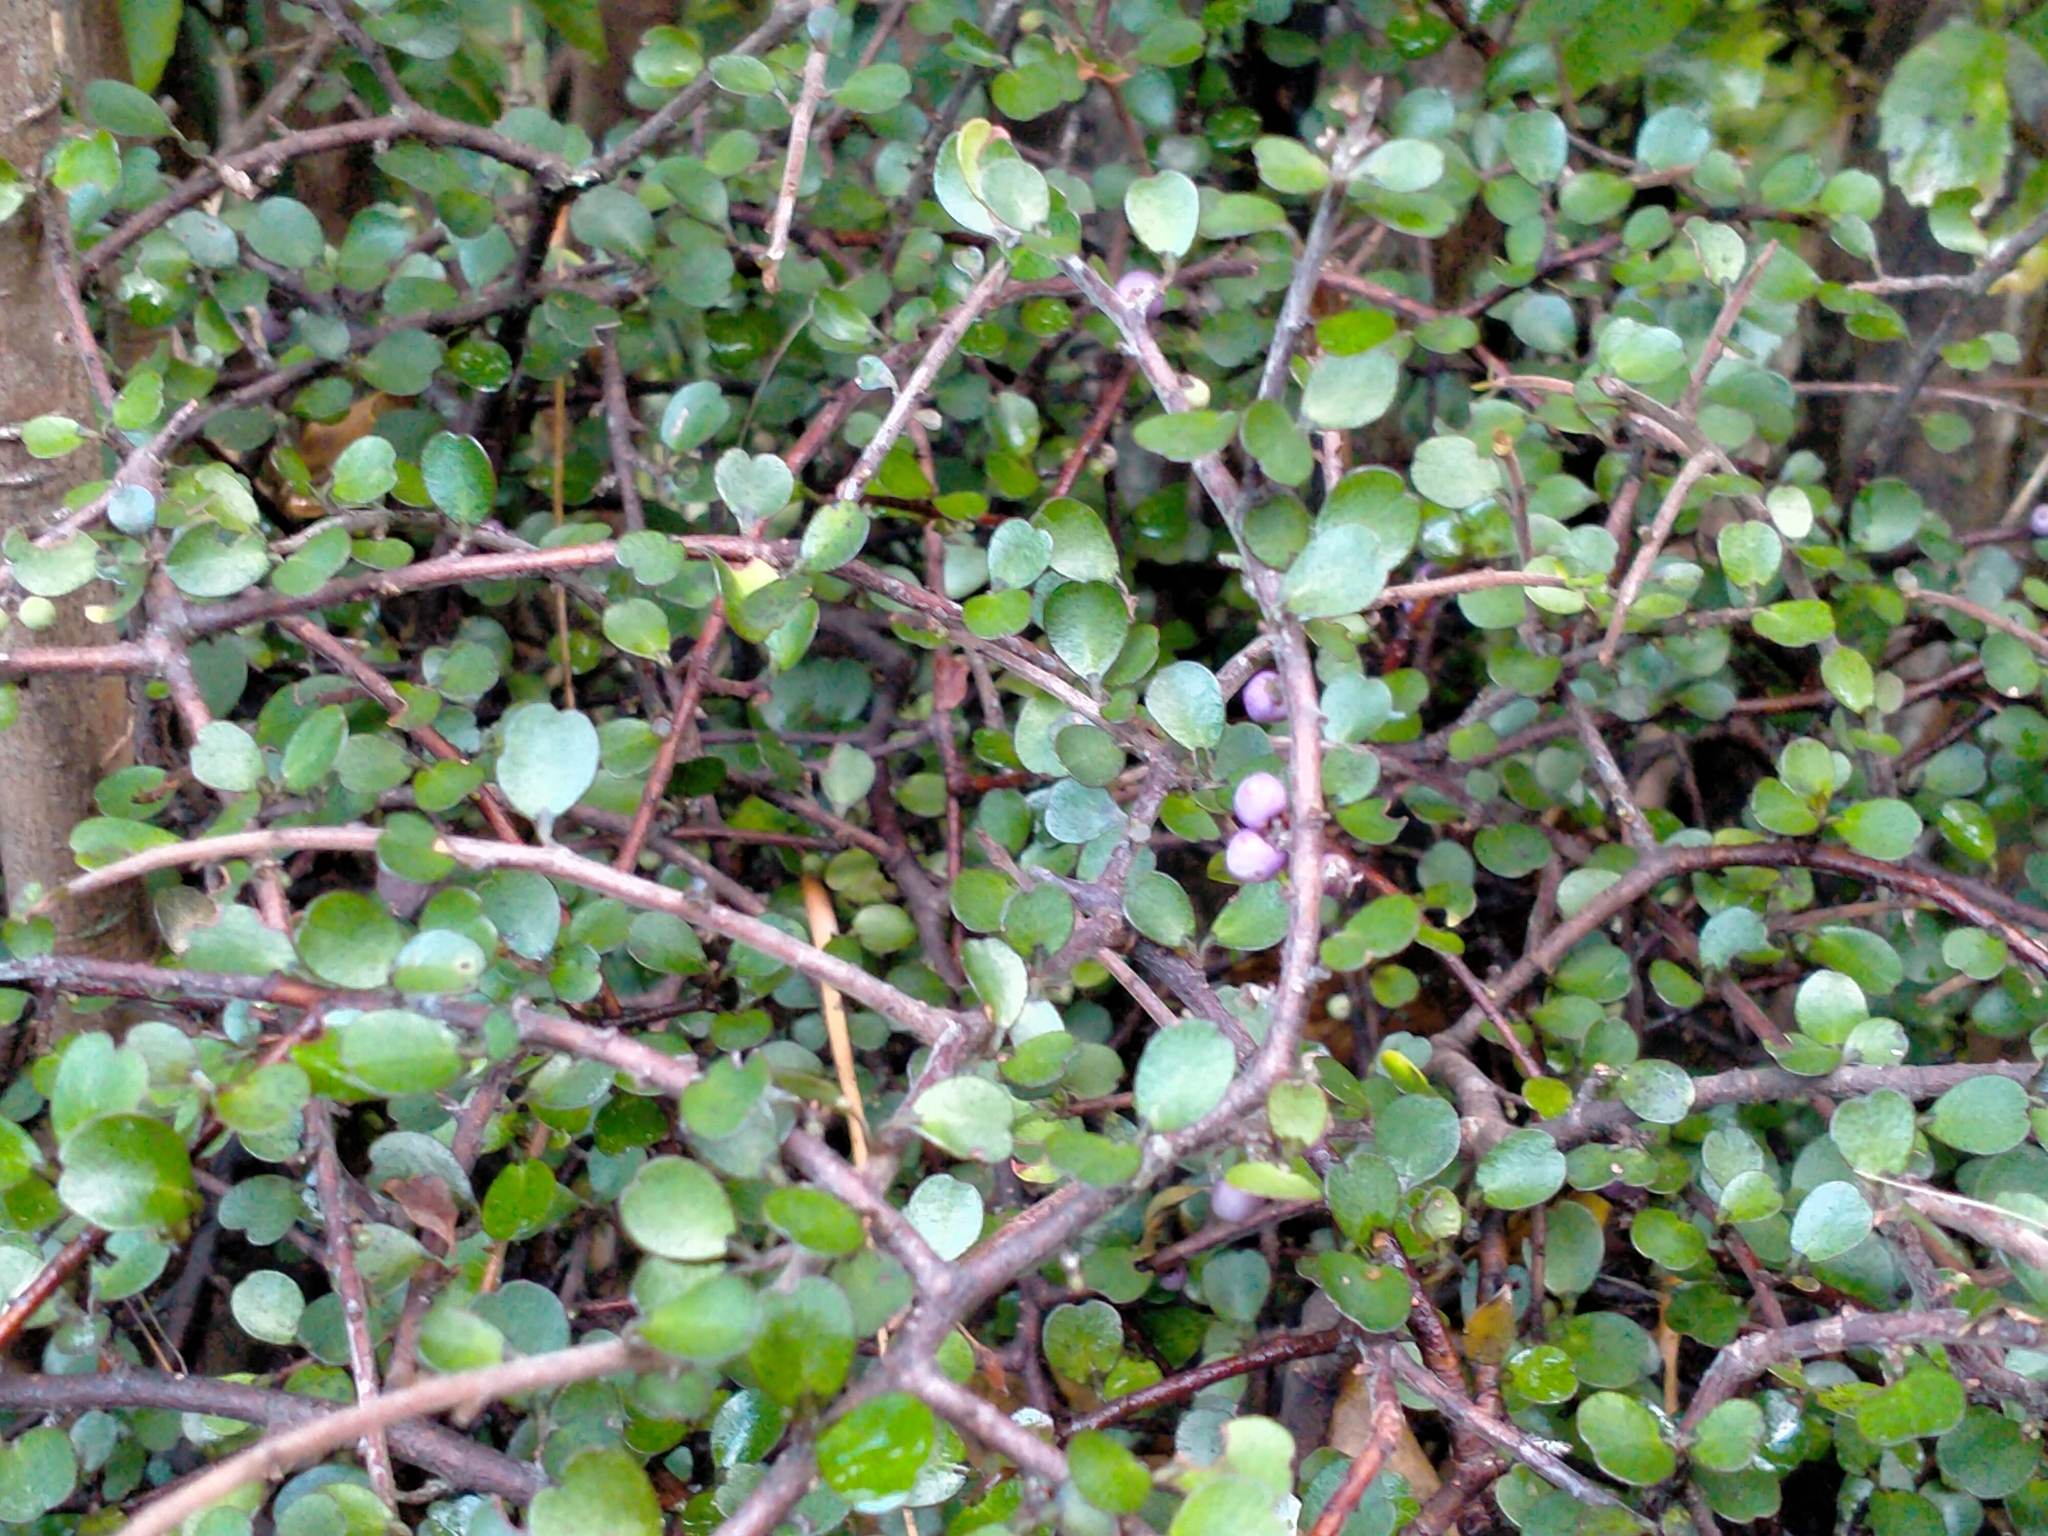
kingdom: Plantae
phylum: Tracheophyta
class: Magnoliopsida
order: Ericales
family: Primulaceae
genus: Myrsine
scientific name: Myrsine divaricata
